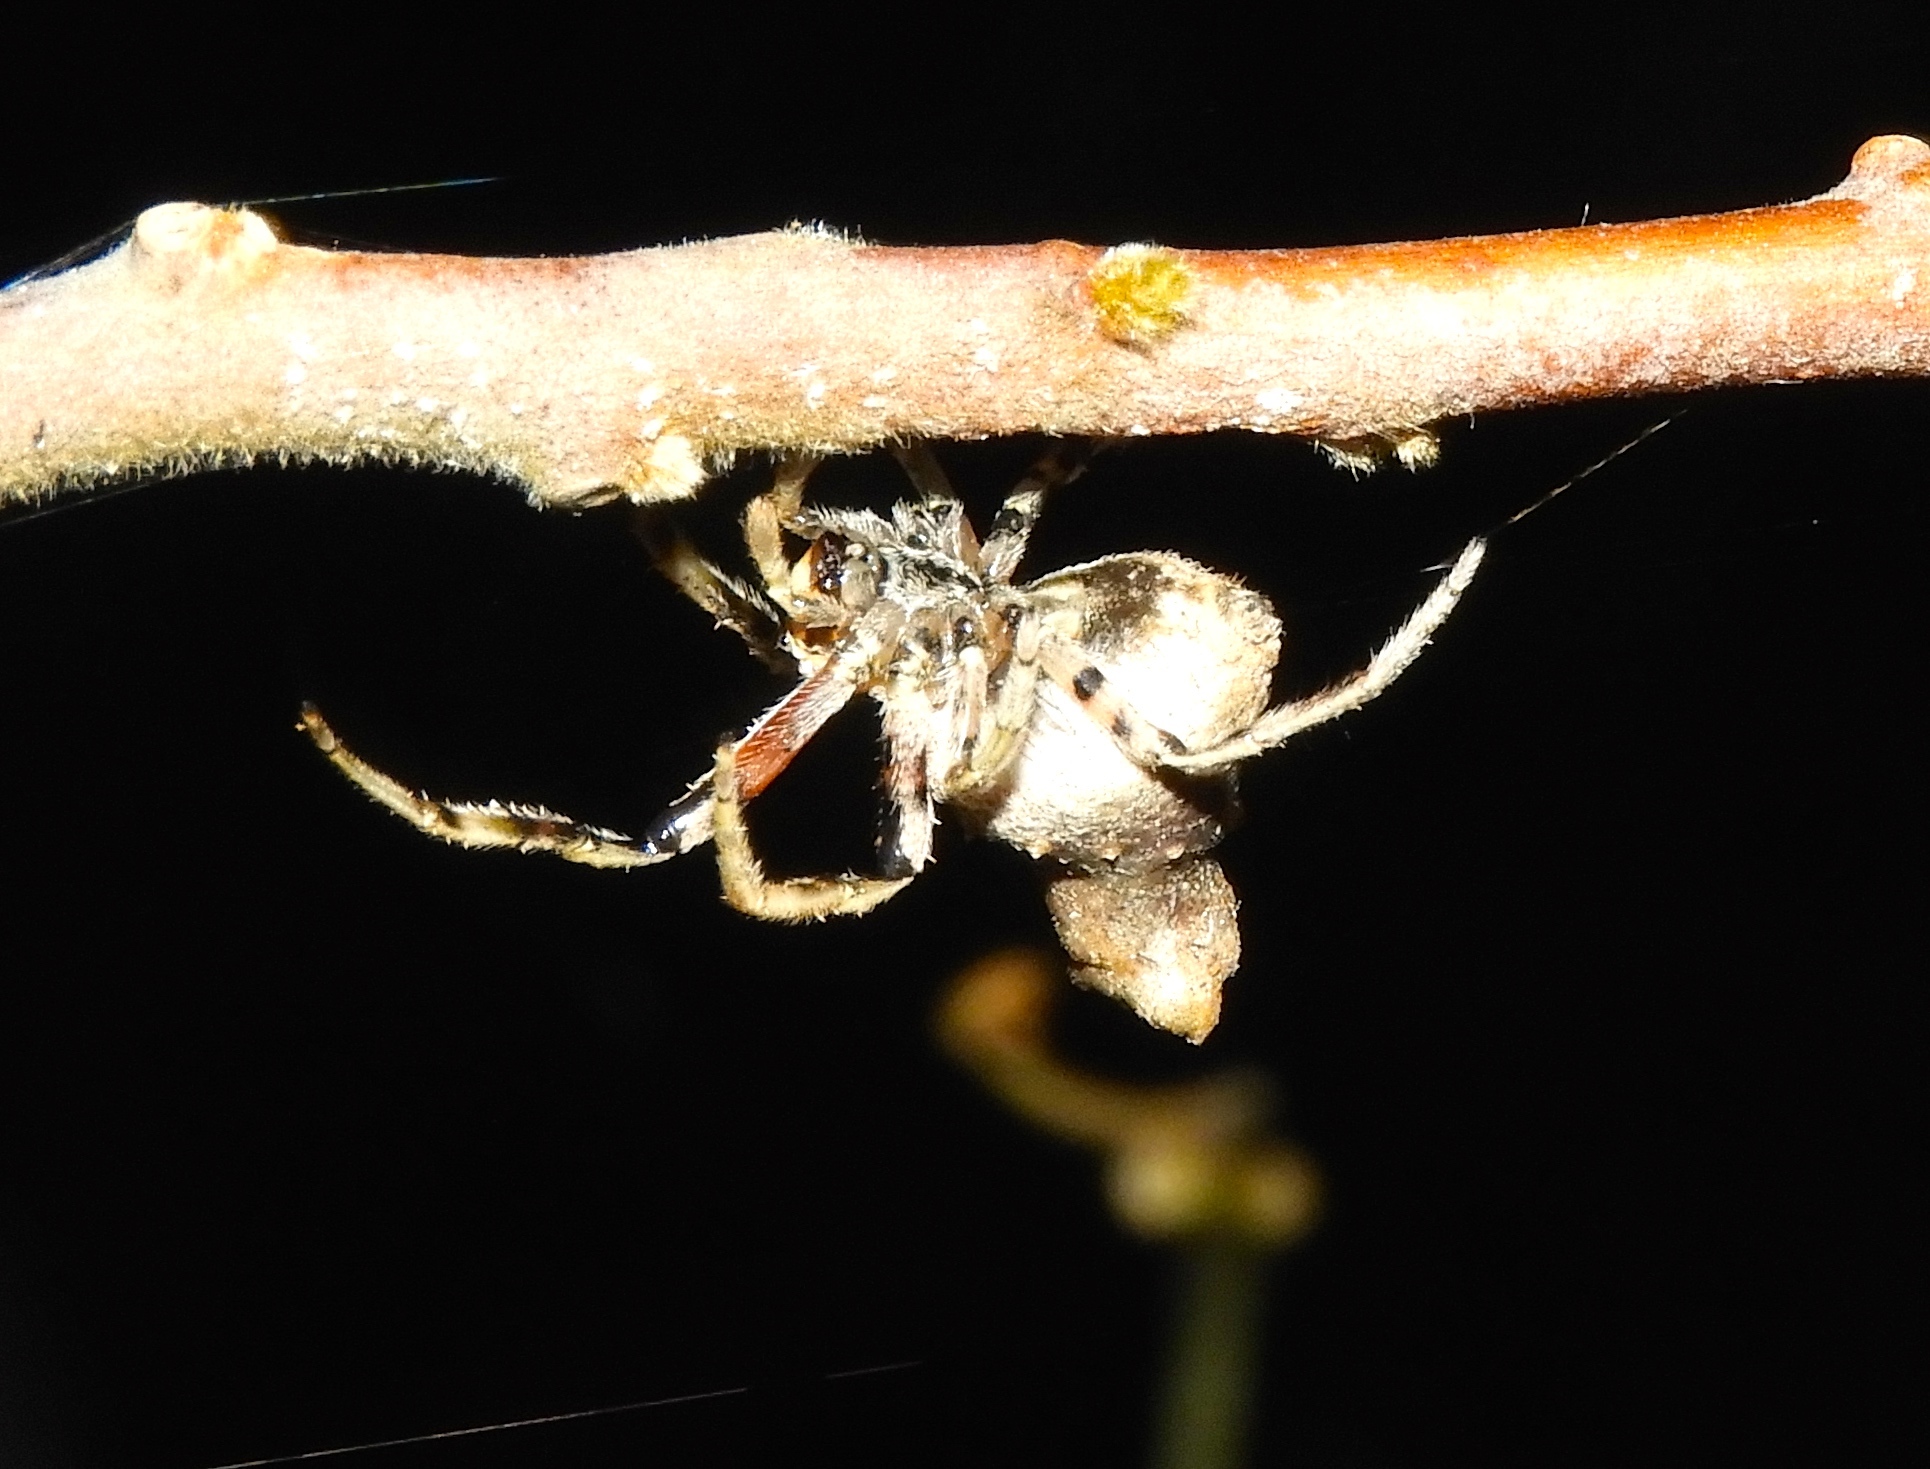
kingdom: Animalia
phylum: Arthropoda
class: Arachnida
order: Araneae
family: Araneidae
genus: Pozonia
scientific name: Pozonia
